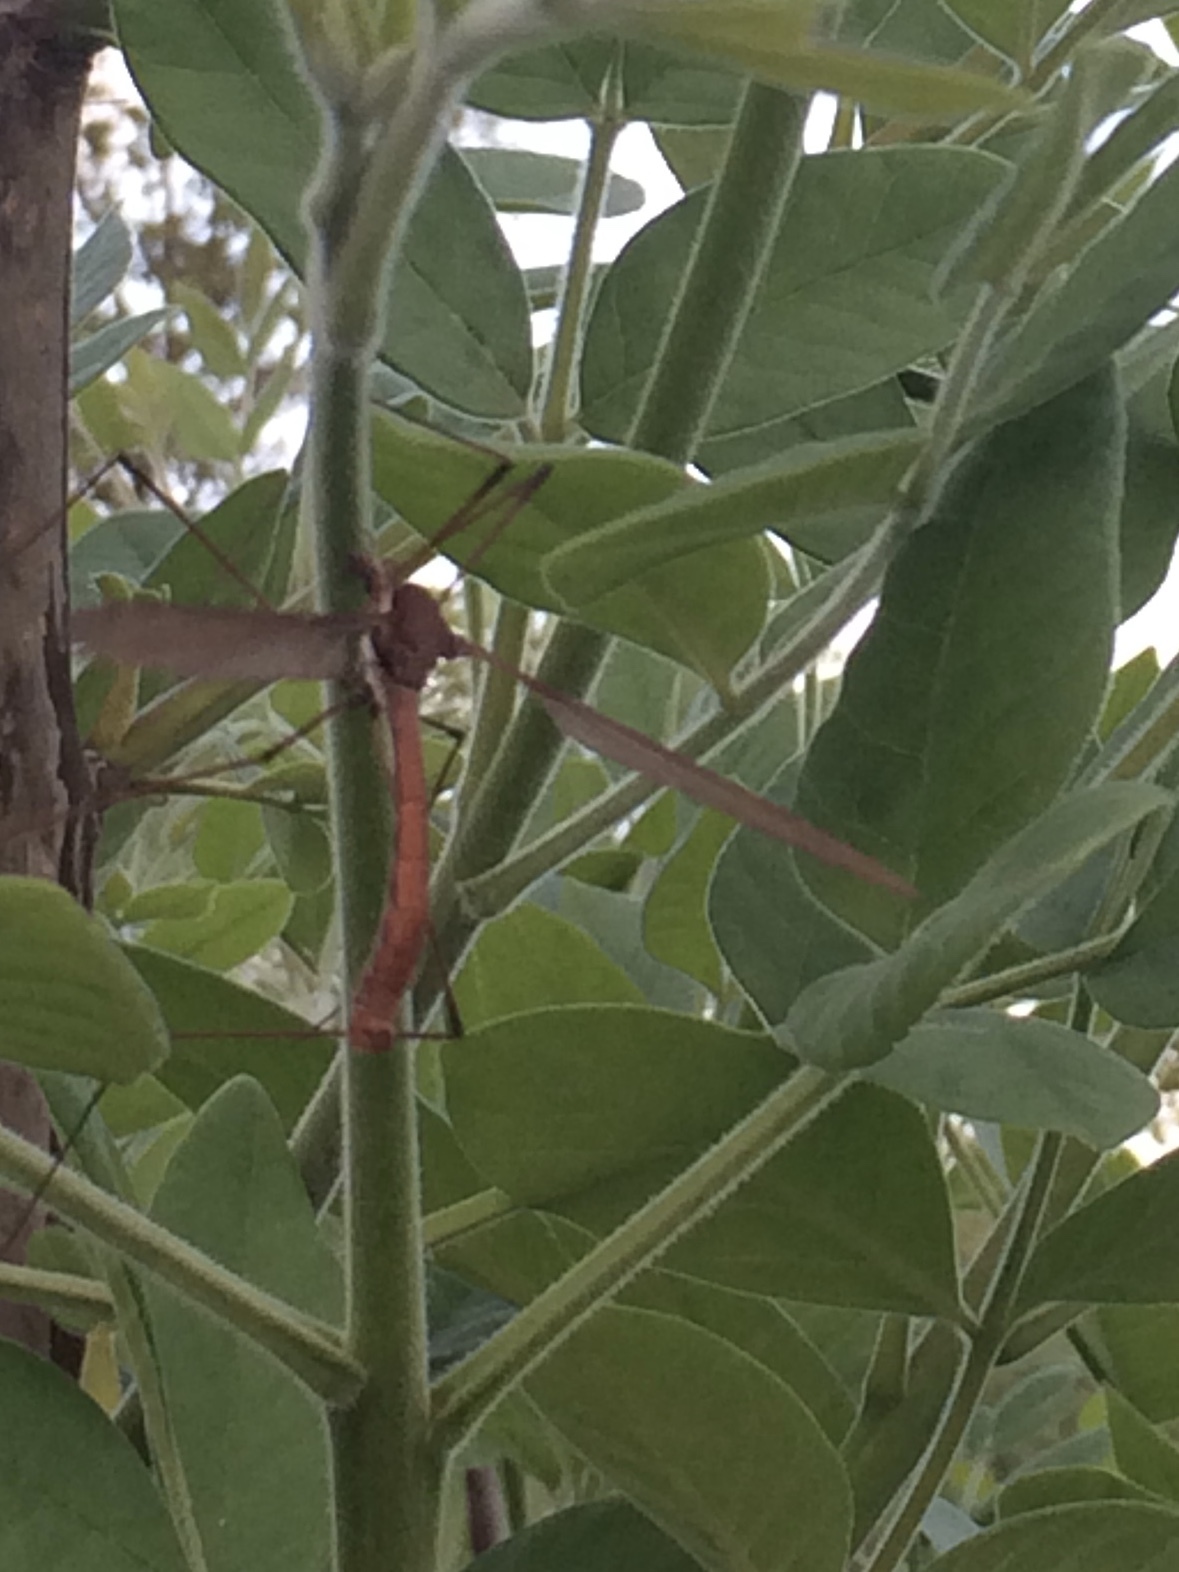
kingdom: Animalia
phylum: Arthropoda
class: Insecta
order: Diptera
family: Tipulidae
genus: Holorusia
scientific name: Holorusia hespera
